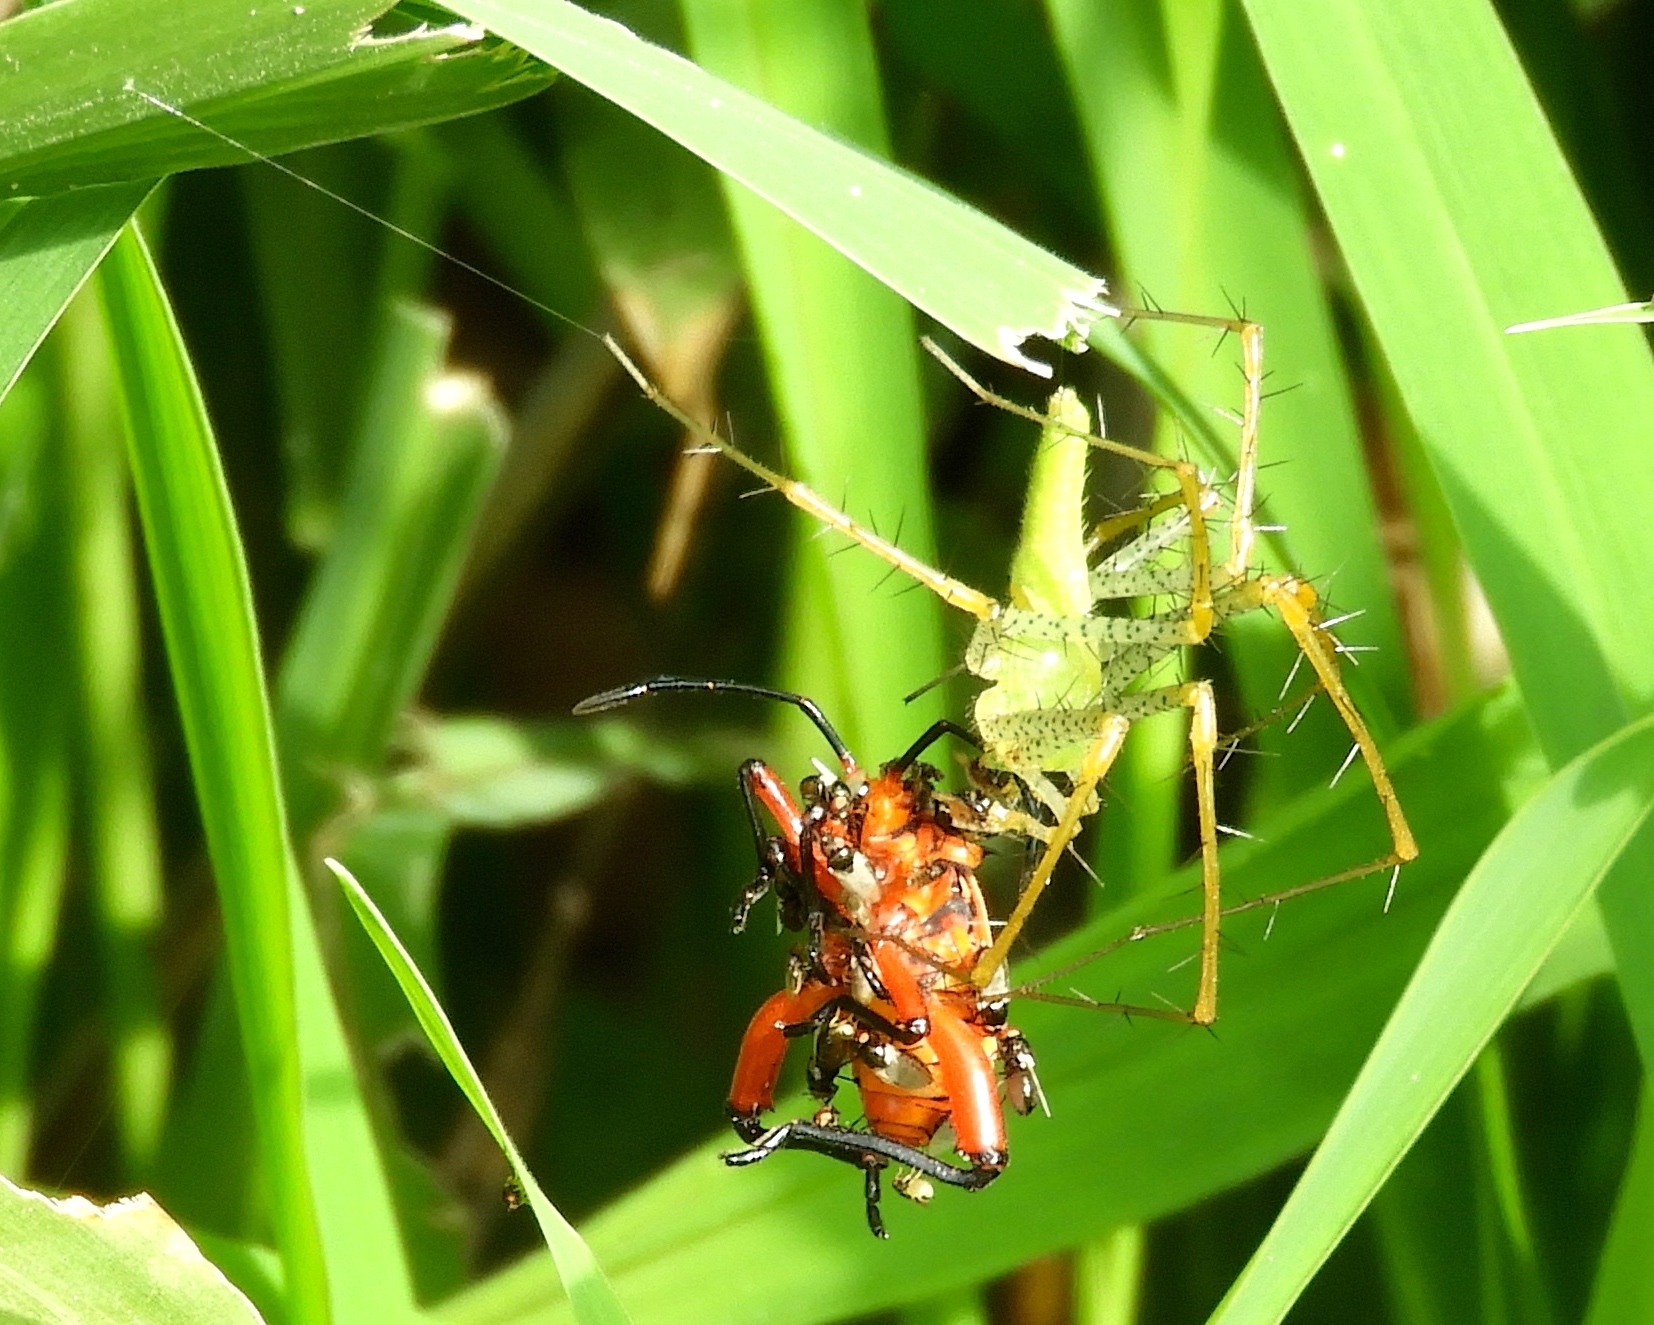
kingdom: Animalia
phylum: Arthropoda
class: Arachnida
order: Araneae
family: Oxyopidae
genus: Peucetia
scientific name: Peucetia
